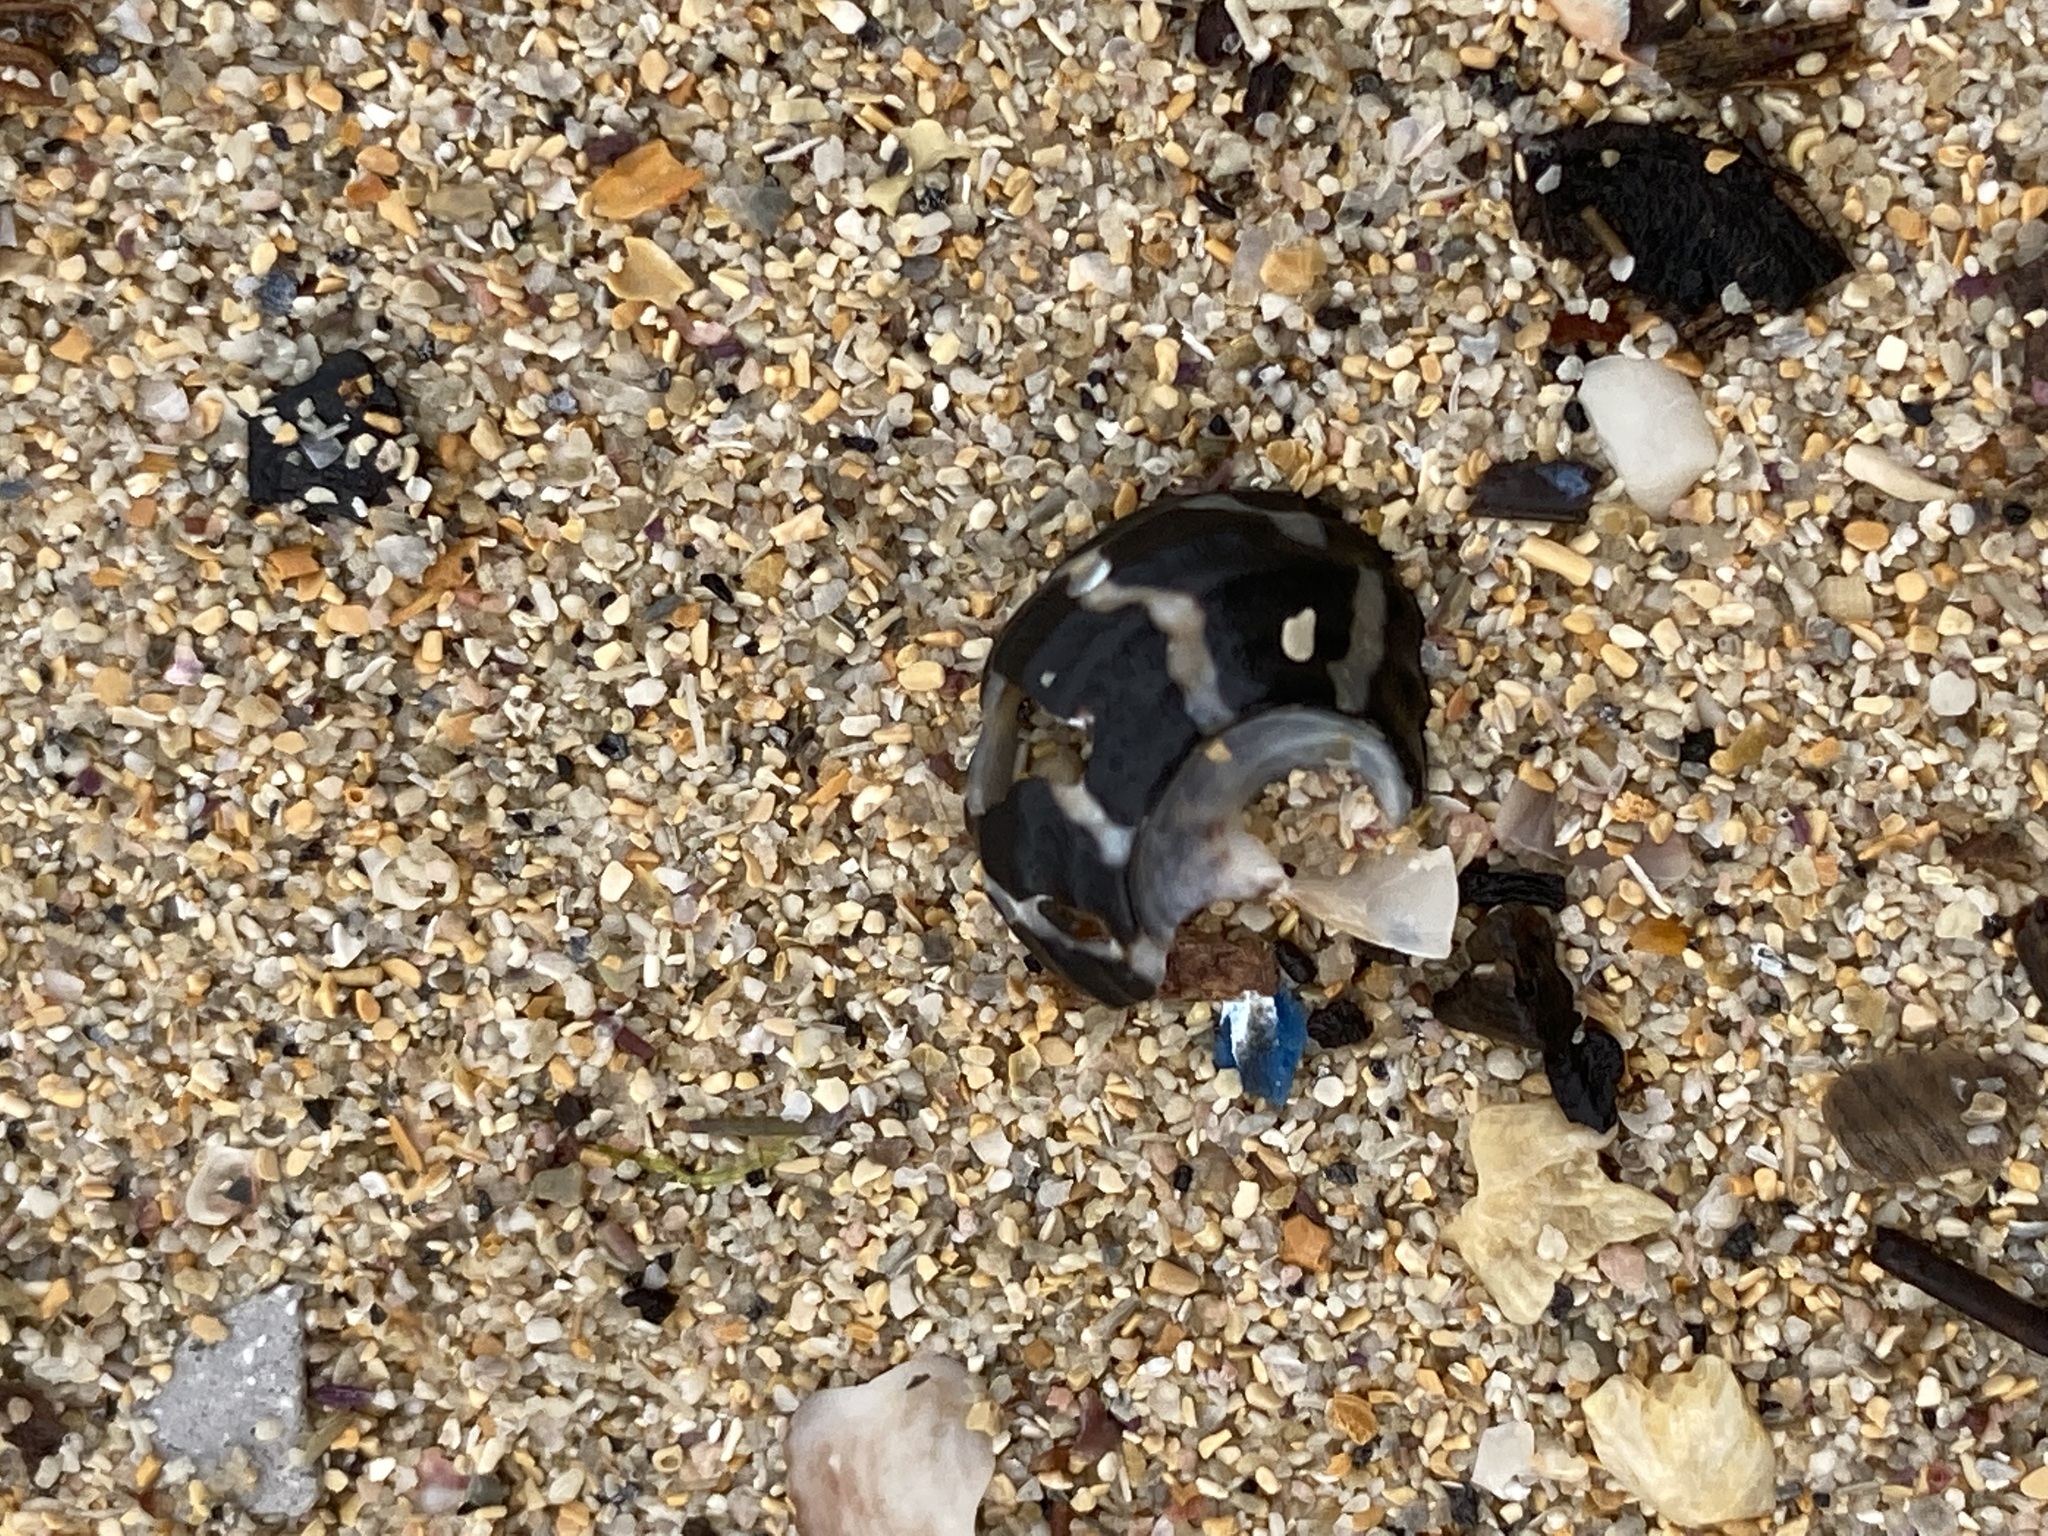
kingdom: Animalia
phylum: Mollusca
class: Gastropoda
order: Trochida
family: Trochidae
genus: Austrocochlea
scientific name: Austrocochlea porcata
